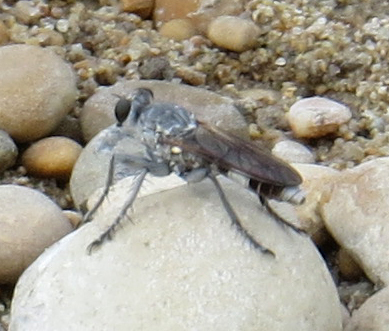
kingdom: Animalia
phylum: Arthropoda
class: Insecta
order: Diptera
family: Asilidae
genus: Stichopogon
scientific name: Stichopogon trifasciatus
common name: Three-banded robber fly
